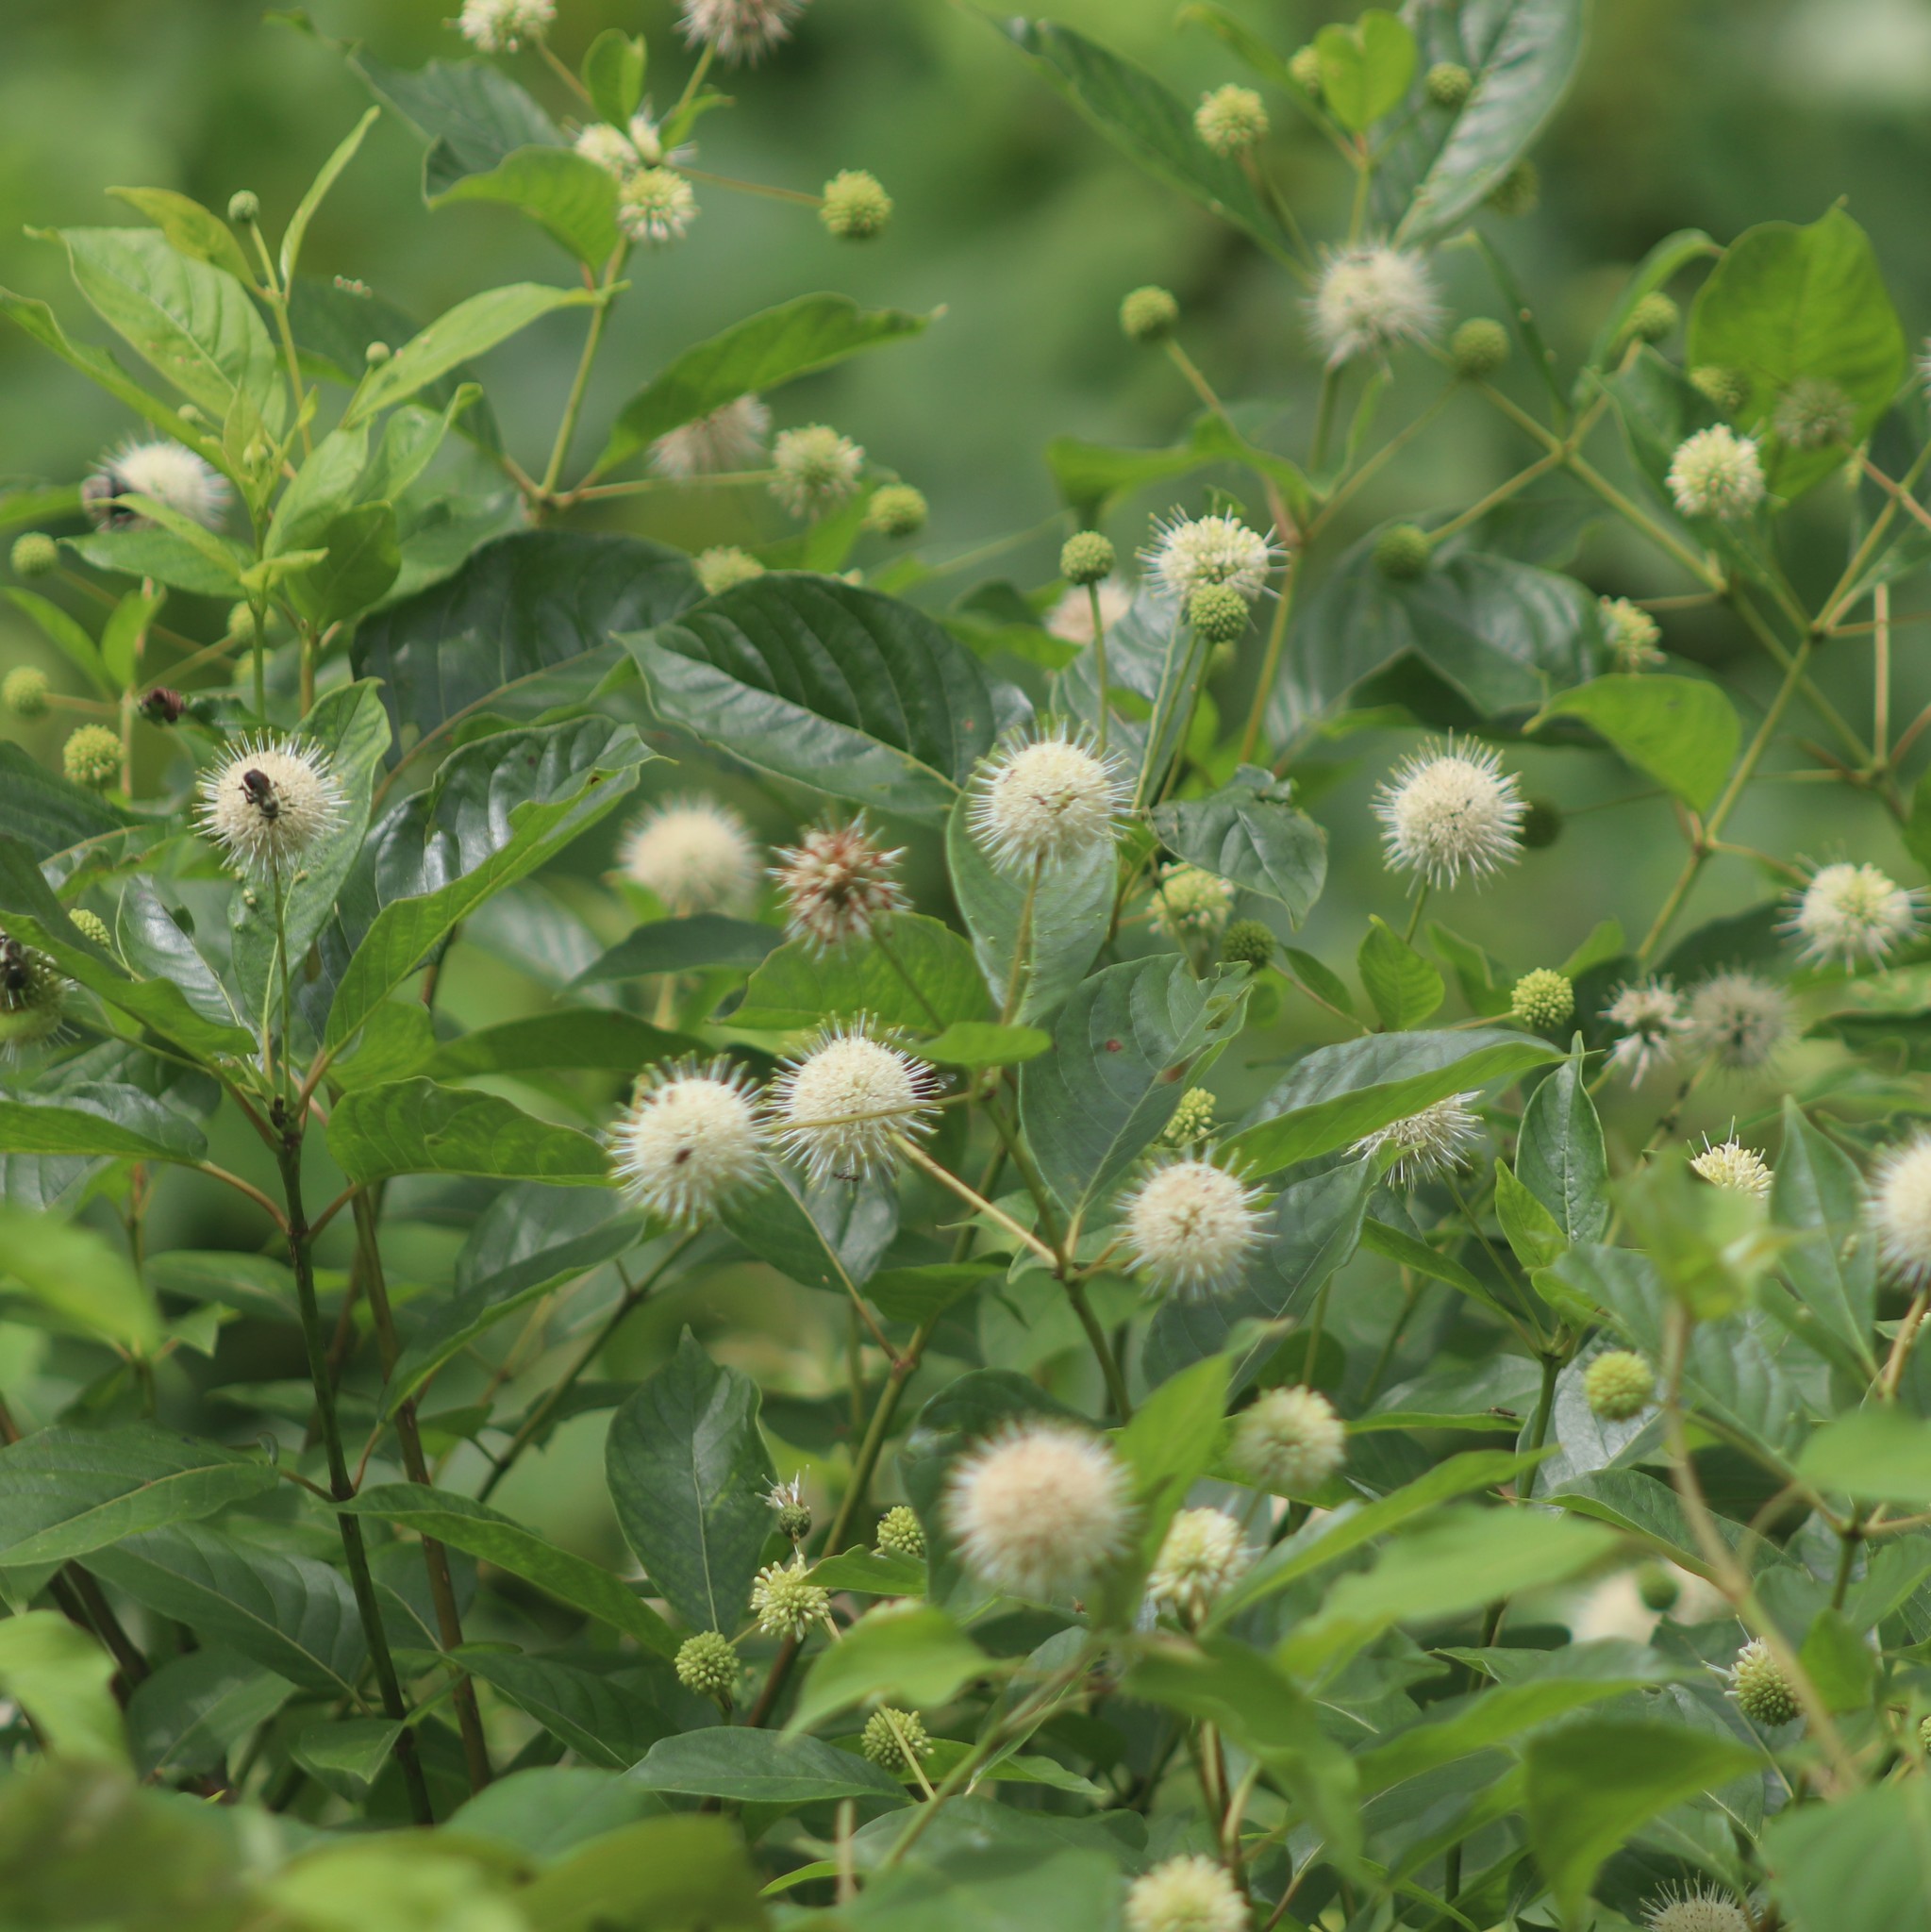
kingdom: Plantae
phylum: Tracheophyta
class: Magnoliopsida
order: Gentianales
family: Rubiaceae
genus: Cephalanthus
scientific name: Cephalanthus occidentalis
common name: Button-willow
